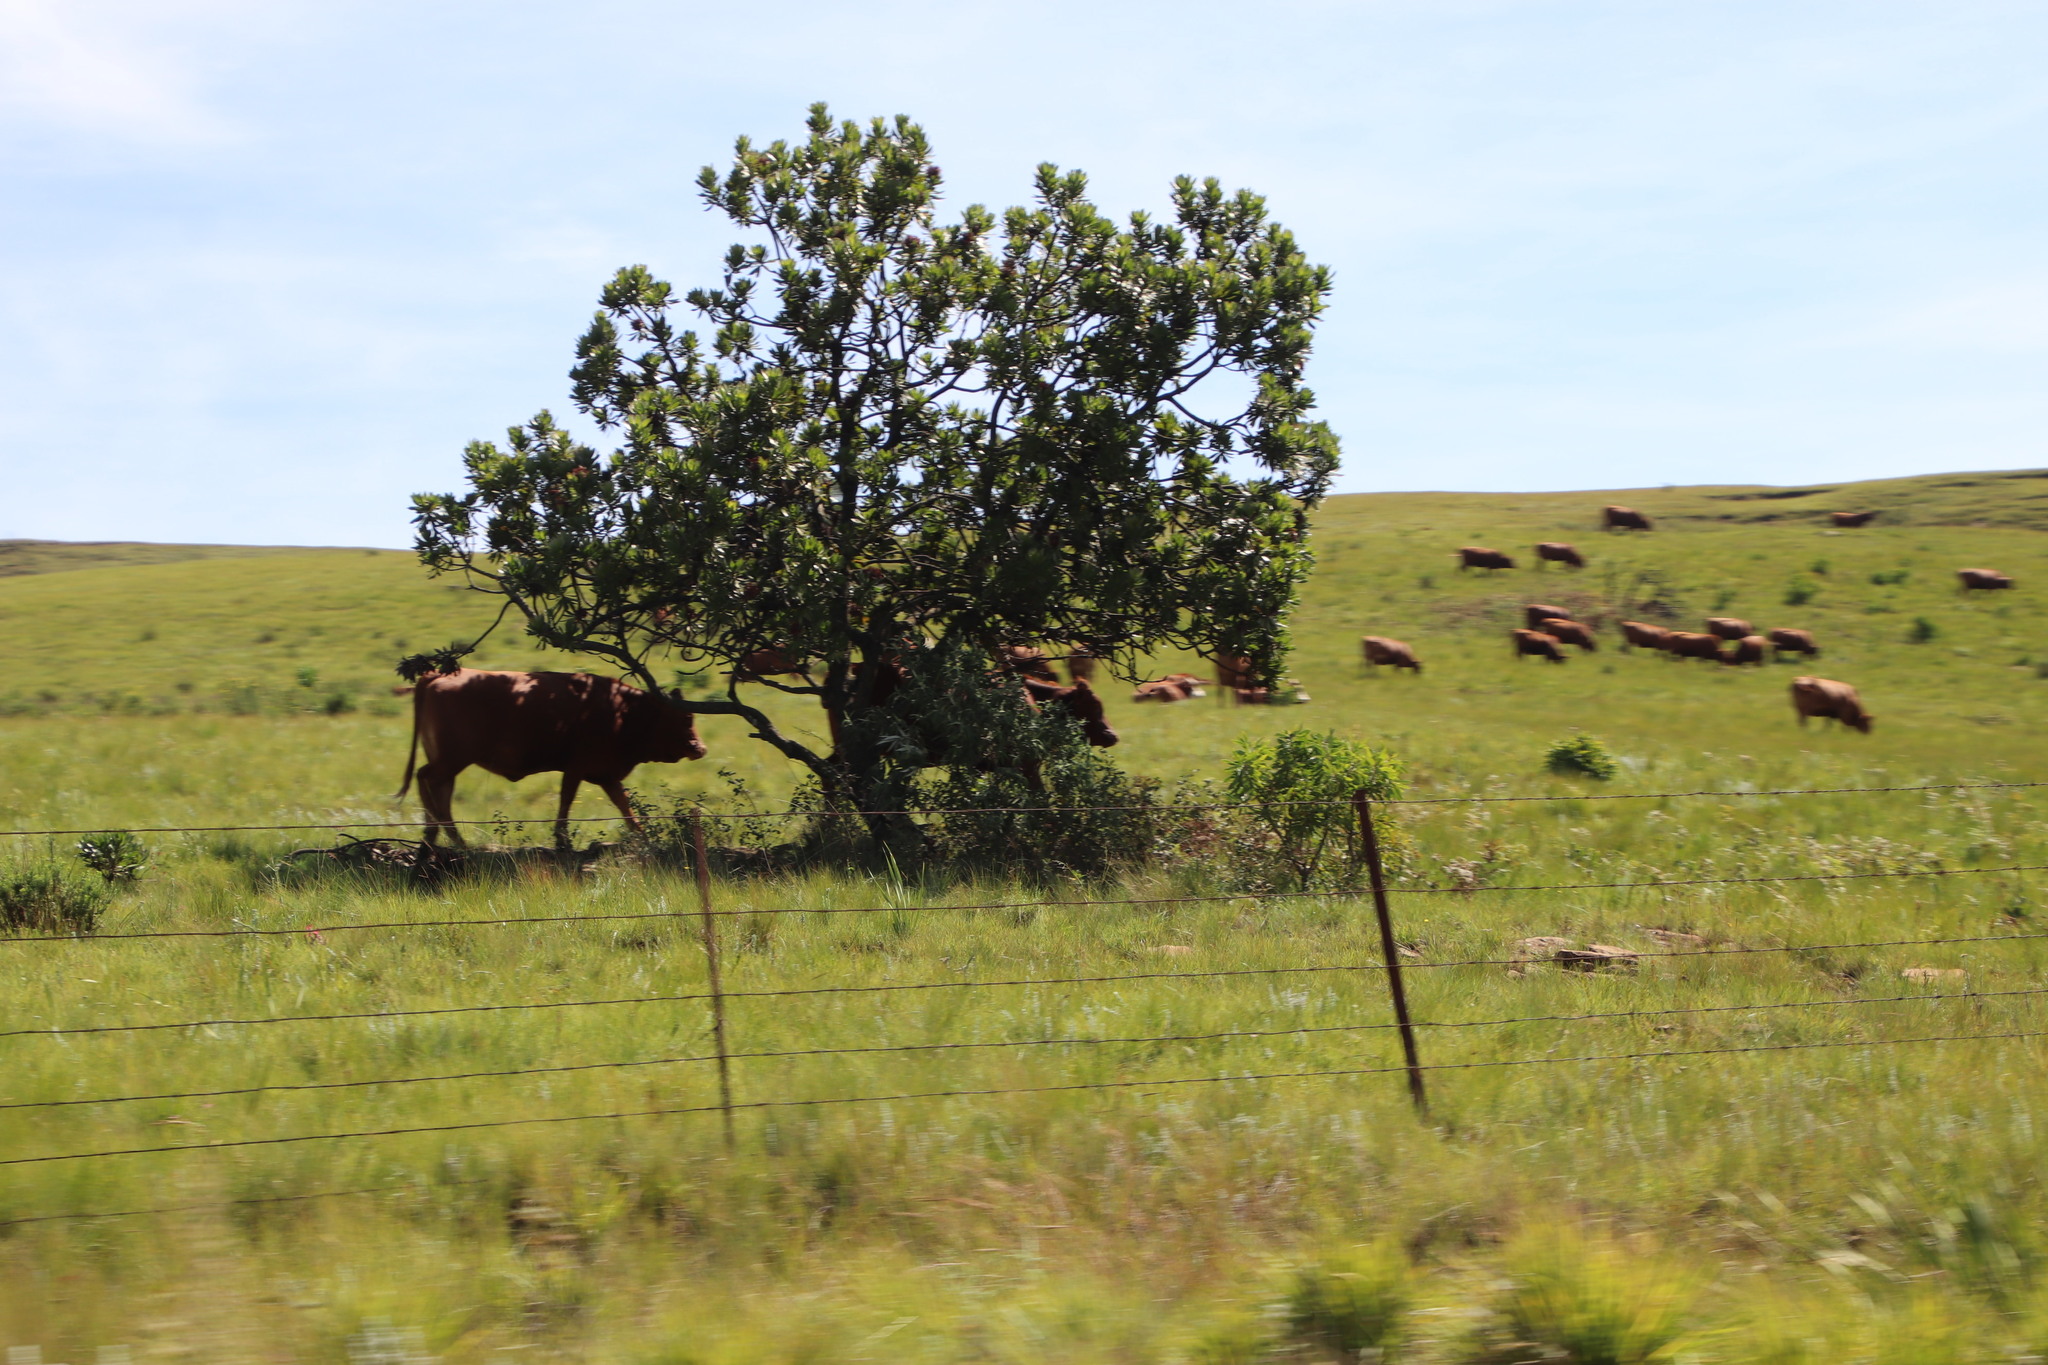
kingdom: Plantae
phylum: Tracheophyta
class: Magnoliopsida
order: Proteales
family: Proteaceae
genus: Protea
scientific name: Protea roupelliae
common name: Silver sugarbush
